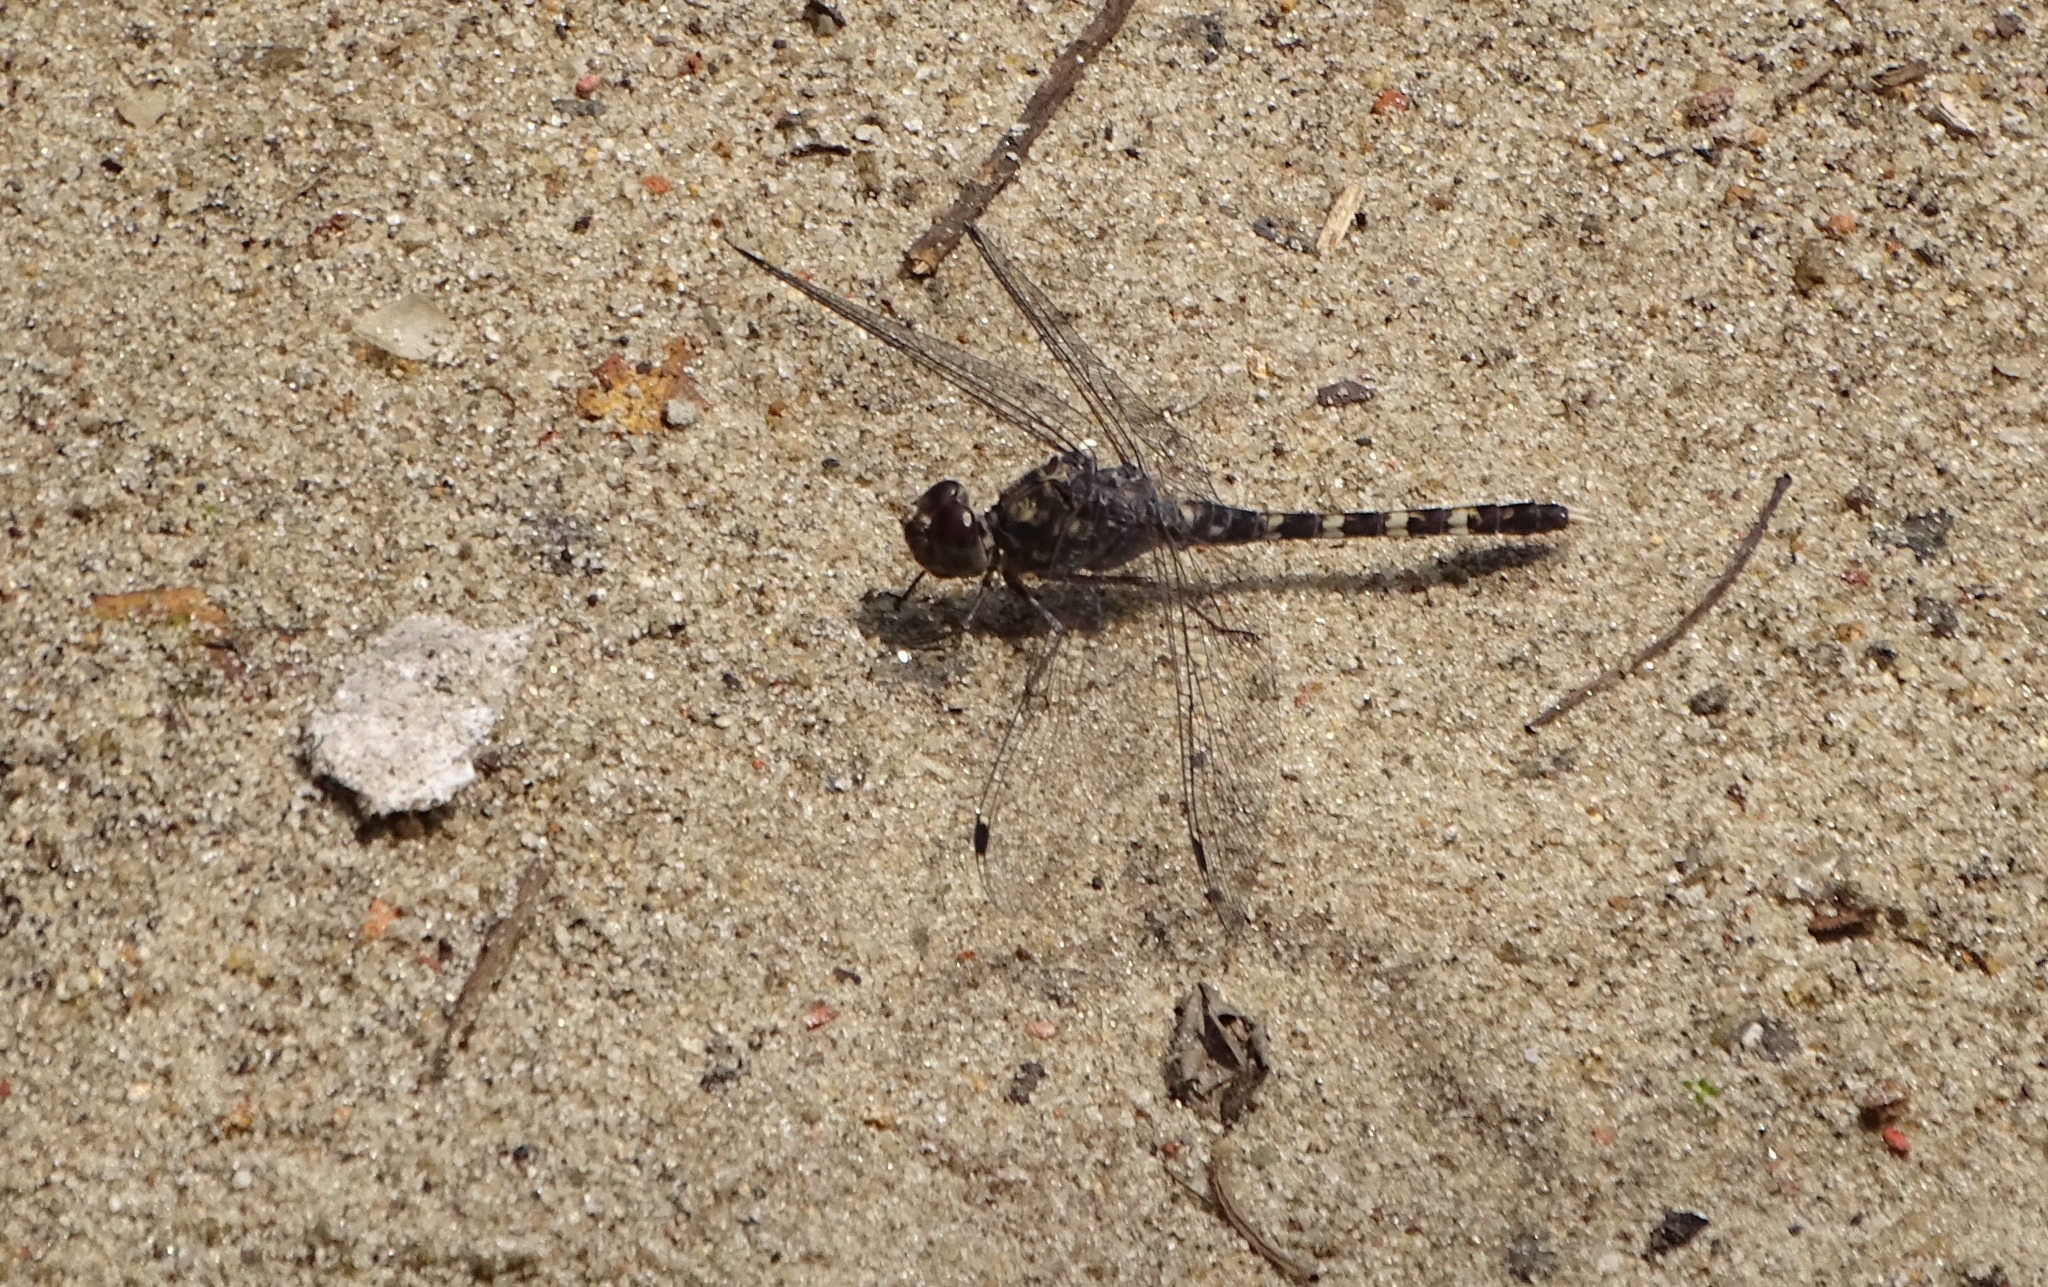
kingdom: Animalia
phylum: Arthropoda
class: Insecta
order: Odonata
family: Libellulidae
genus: Bradinopyga
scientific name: Bradinopyga geminata
